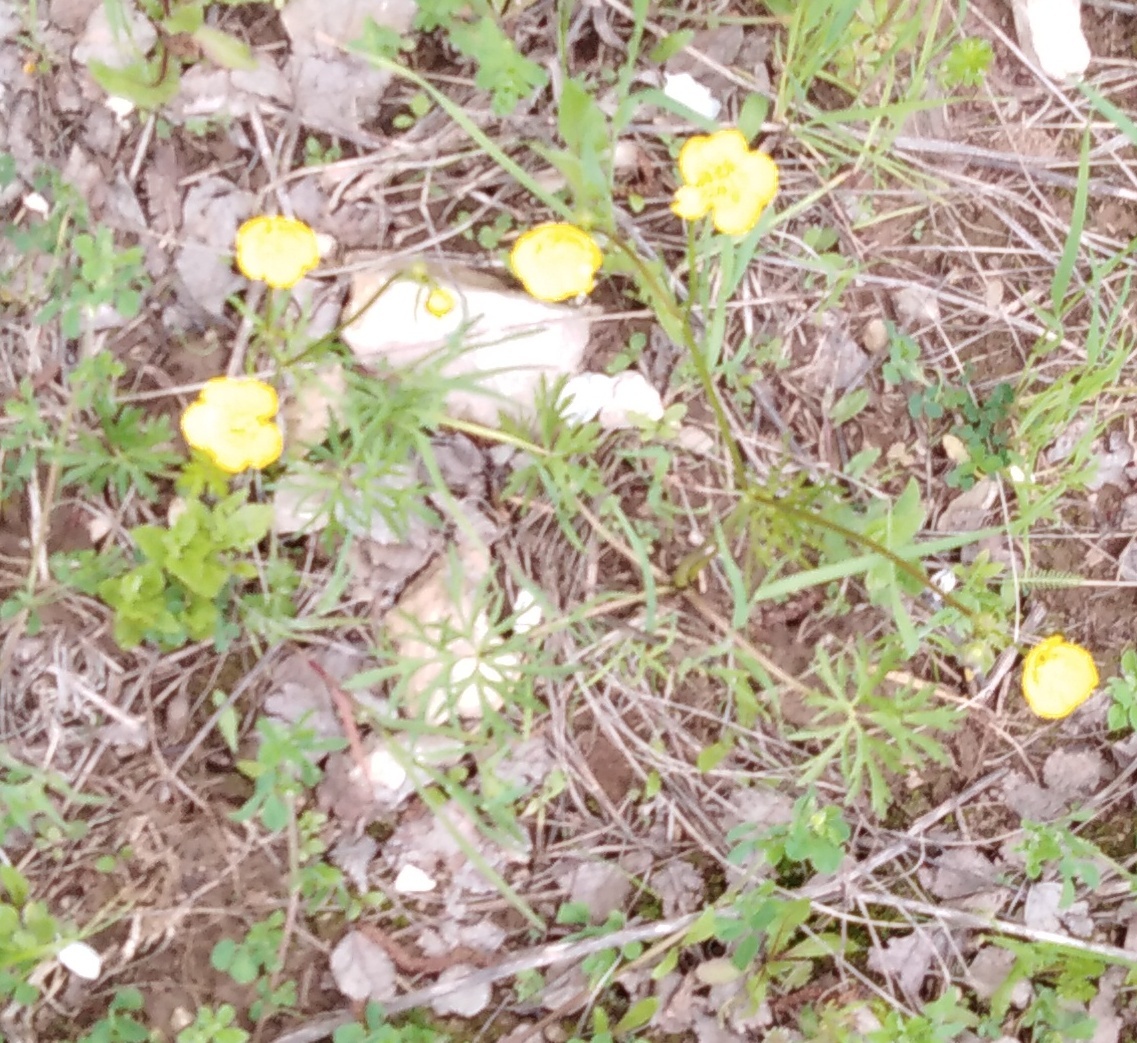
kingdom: Plantae
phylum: Tracheophyta
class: Magnoliopsida
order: Ranunculales
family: Ranunculaceae
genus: Ranunculus
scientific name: Ranunculus polyanthemos
